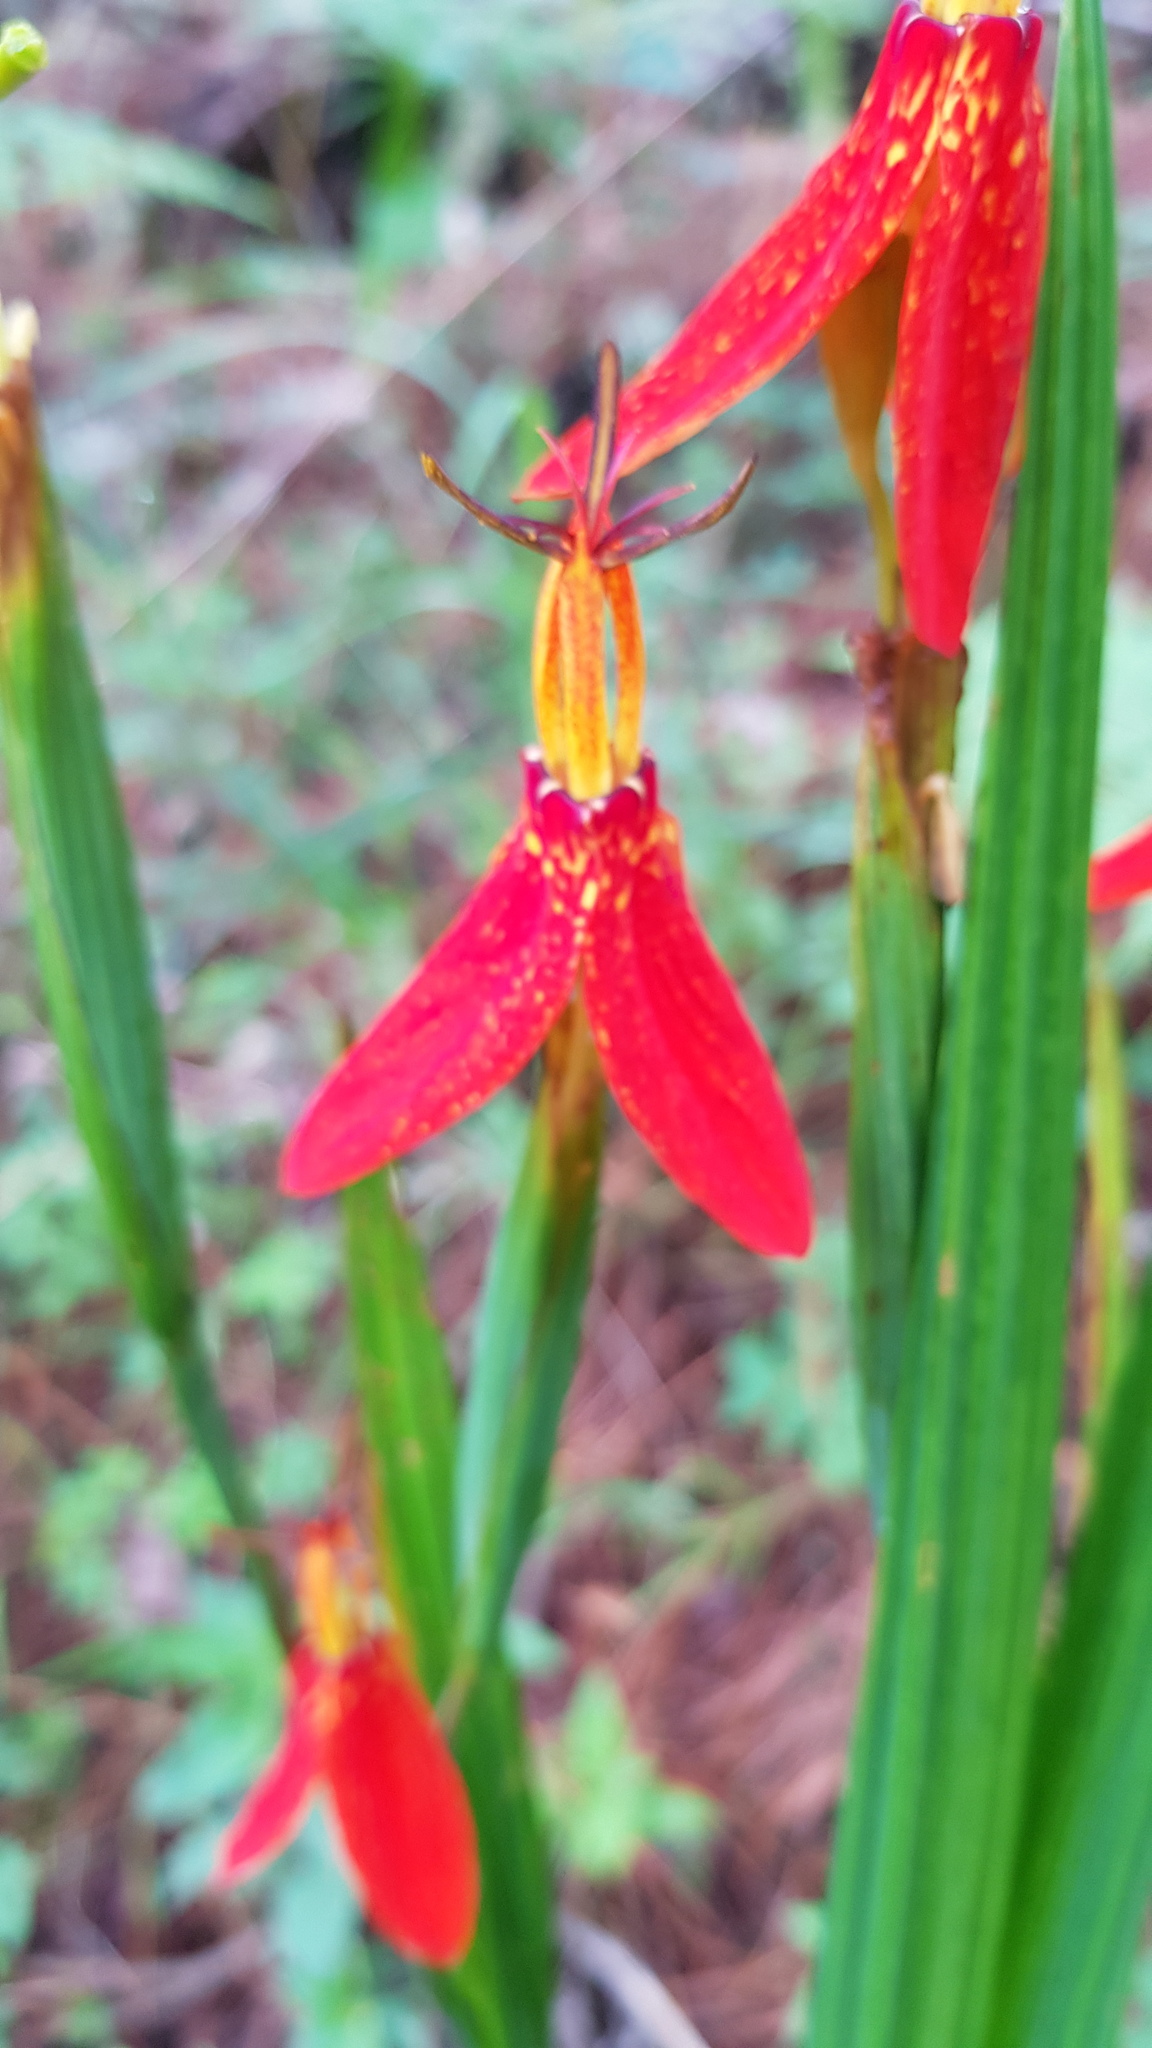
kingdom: Plantae
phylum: Tracheophyta
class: Liliopsida
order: Asparagales
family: Iridaceae
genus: Tigridia
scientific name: Tigridia orthantha
